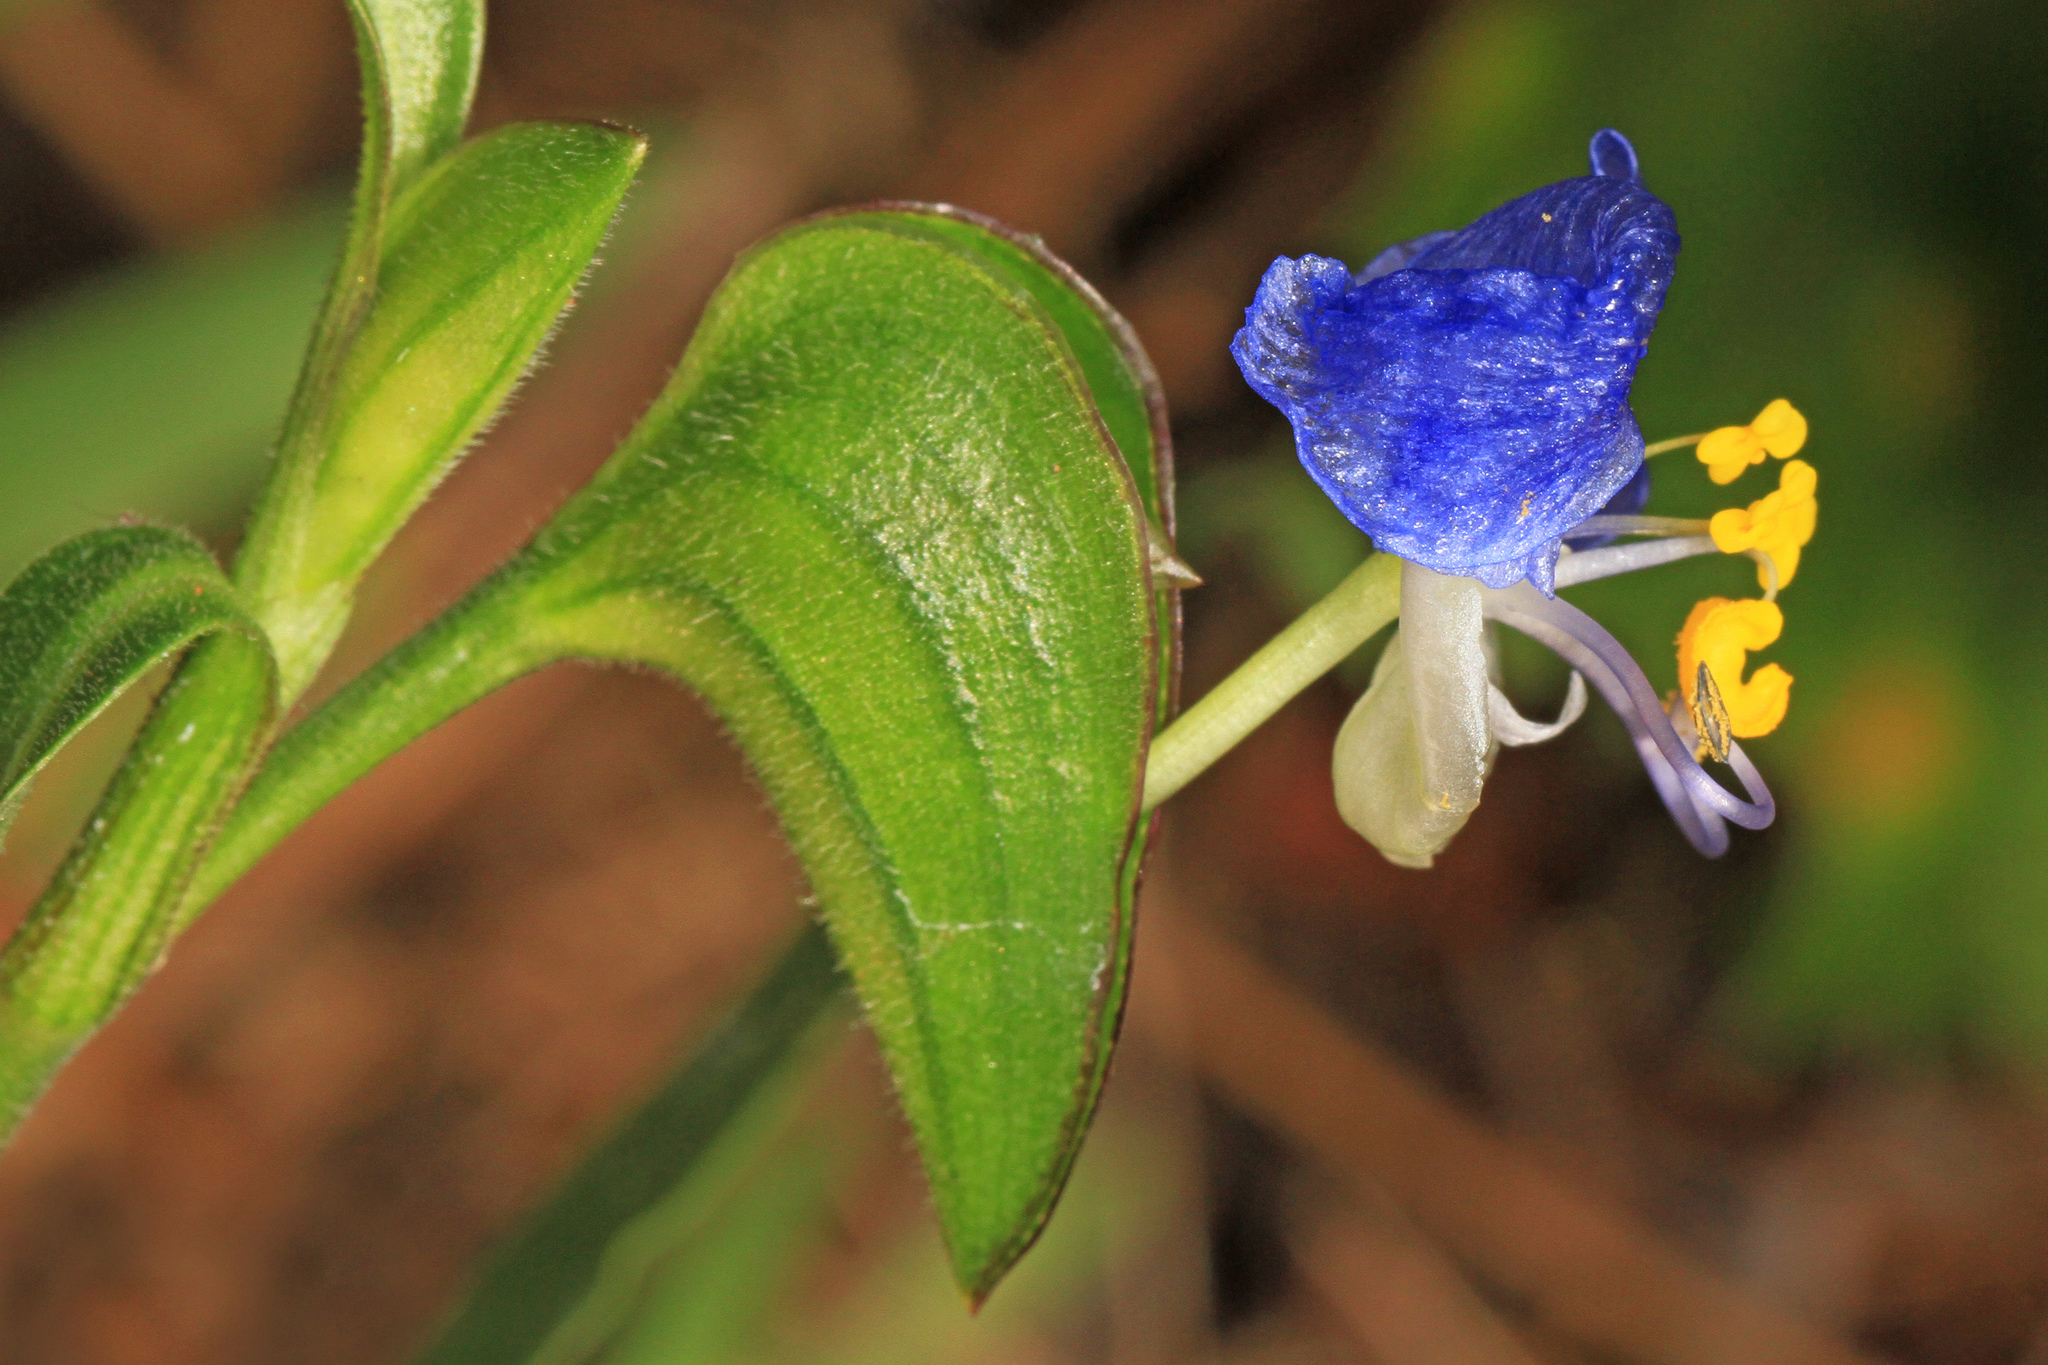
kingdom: Plantae
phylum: Tracheophyta
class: Liliopsida
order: Commelinales
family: Commelinaceae
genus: Commelina
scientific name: Commelina erecta
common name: Blousel blommetjie
